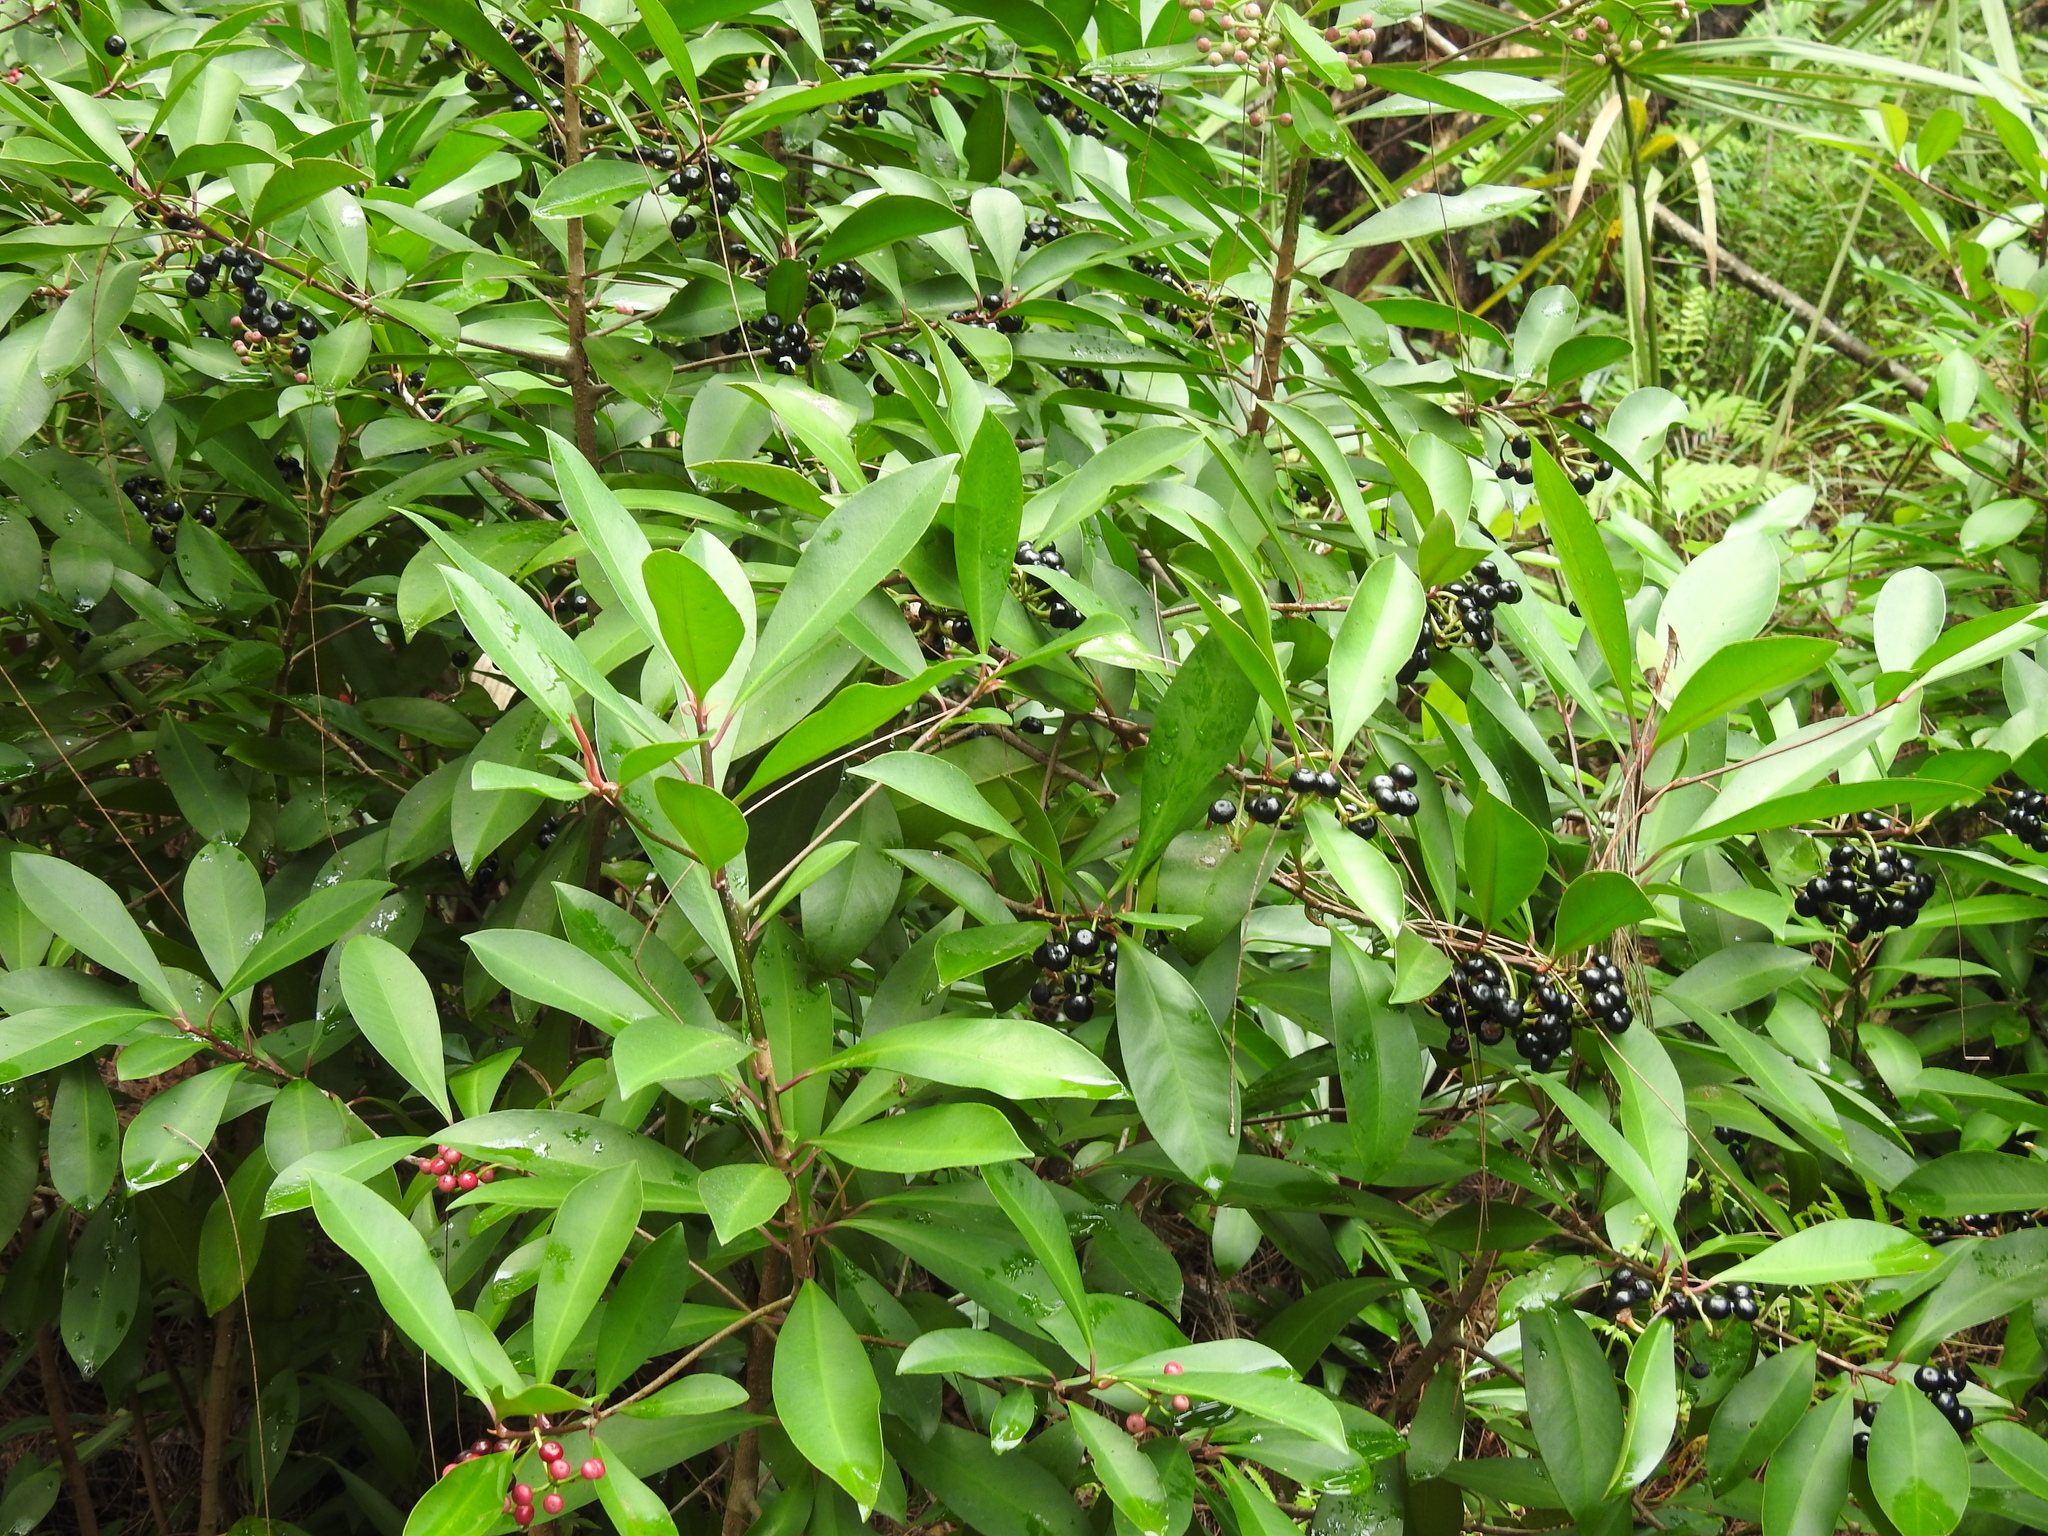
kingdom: Plantae
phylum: Tracheophyta
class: Magnoliopsida
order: Ericales
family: Primulaceae
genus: Ardisia
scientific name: Ardisia elliptica
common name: Shoebutton
